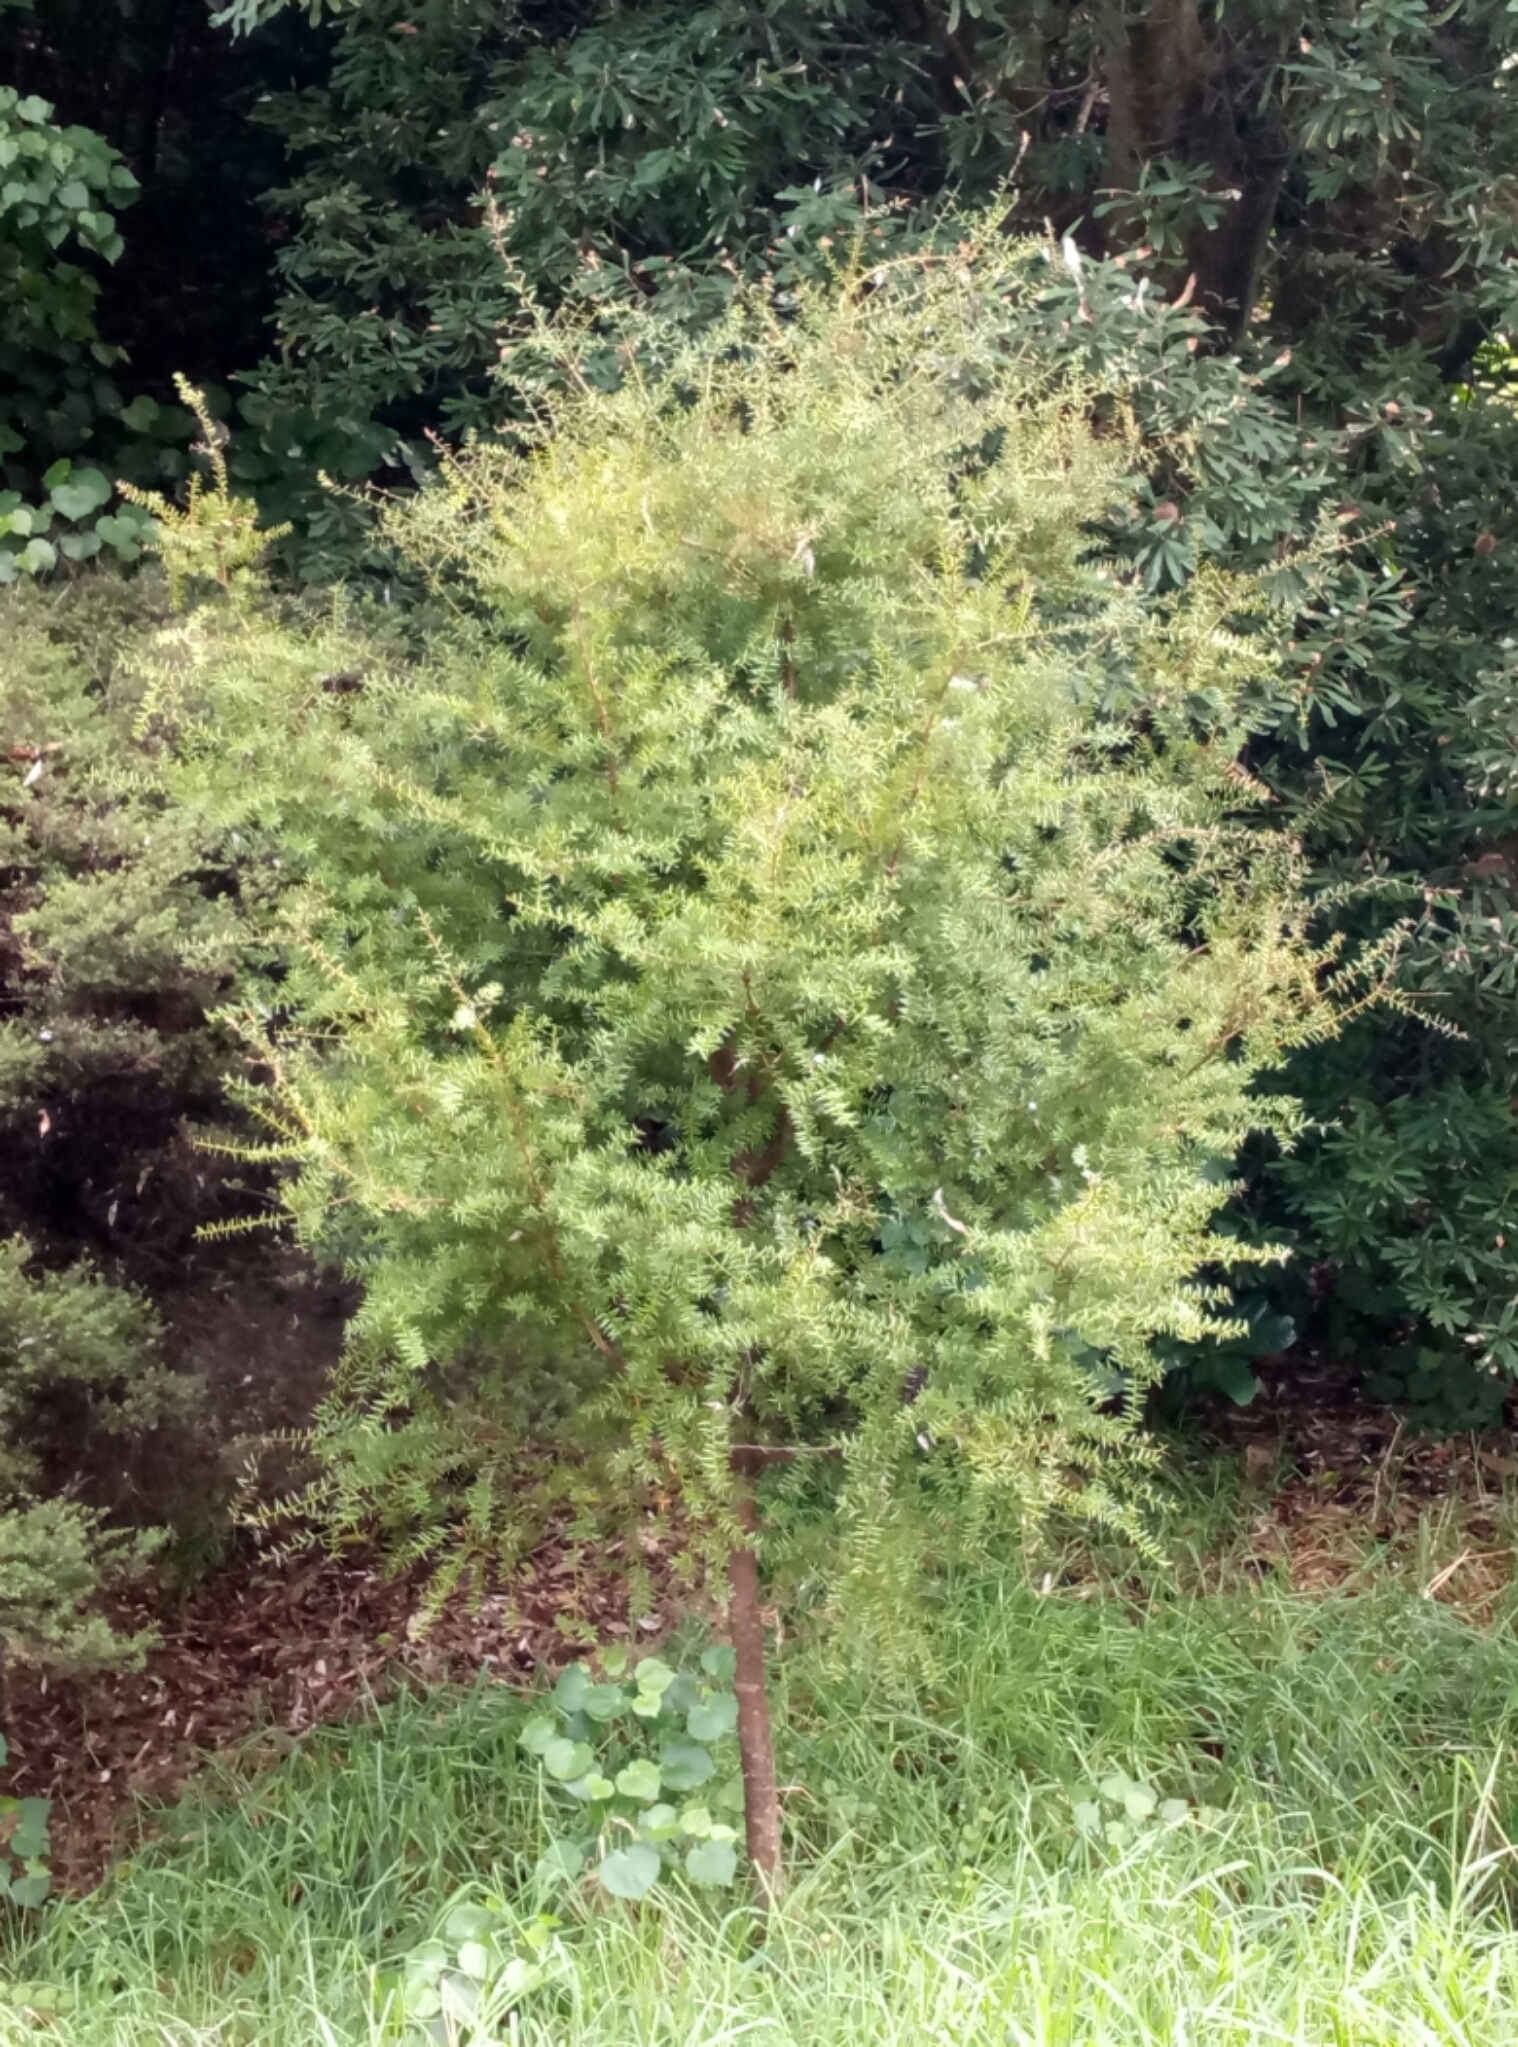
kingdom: Plantae
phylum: Tracheophyta
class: Pinopsida
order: Pinales
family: Podocarpaceae
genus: Podocarpus
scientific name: Podocarpus totara
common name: Totara
